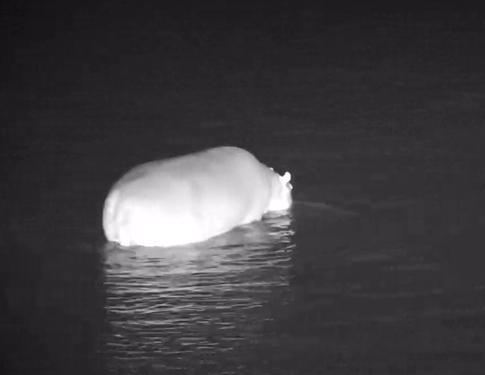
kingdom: Animalia
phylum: Chordata
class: Mammalia
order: Artiodactyla
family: Hippopotamidae
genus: Hippopotamus
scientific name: Hippopotamus amphibius
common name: Common hippopotamus
